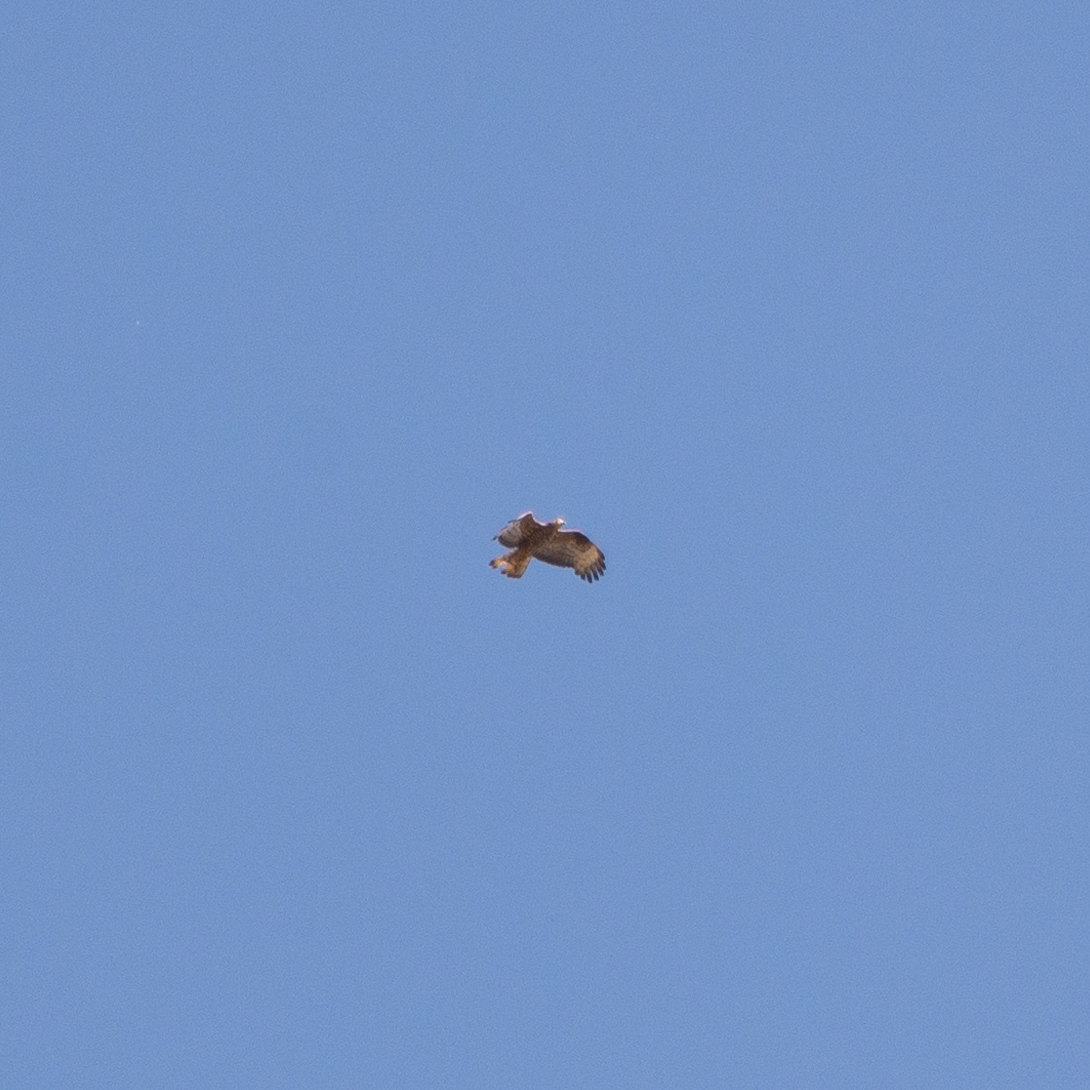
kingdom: Animalia
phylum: Chordata
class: Aves
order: Accipitriformes
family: Accipitridae
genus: Pernis
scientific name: Pernis apivorus
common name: European honey buzzard
